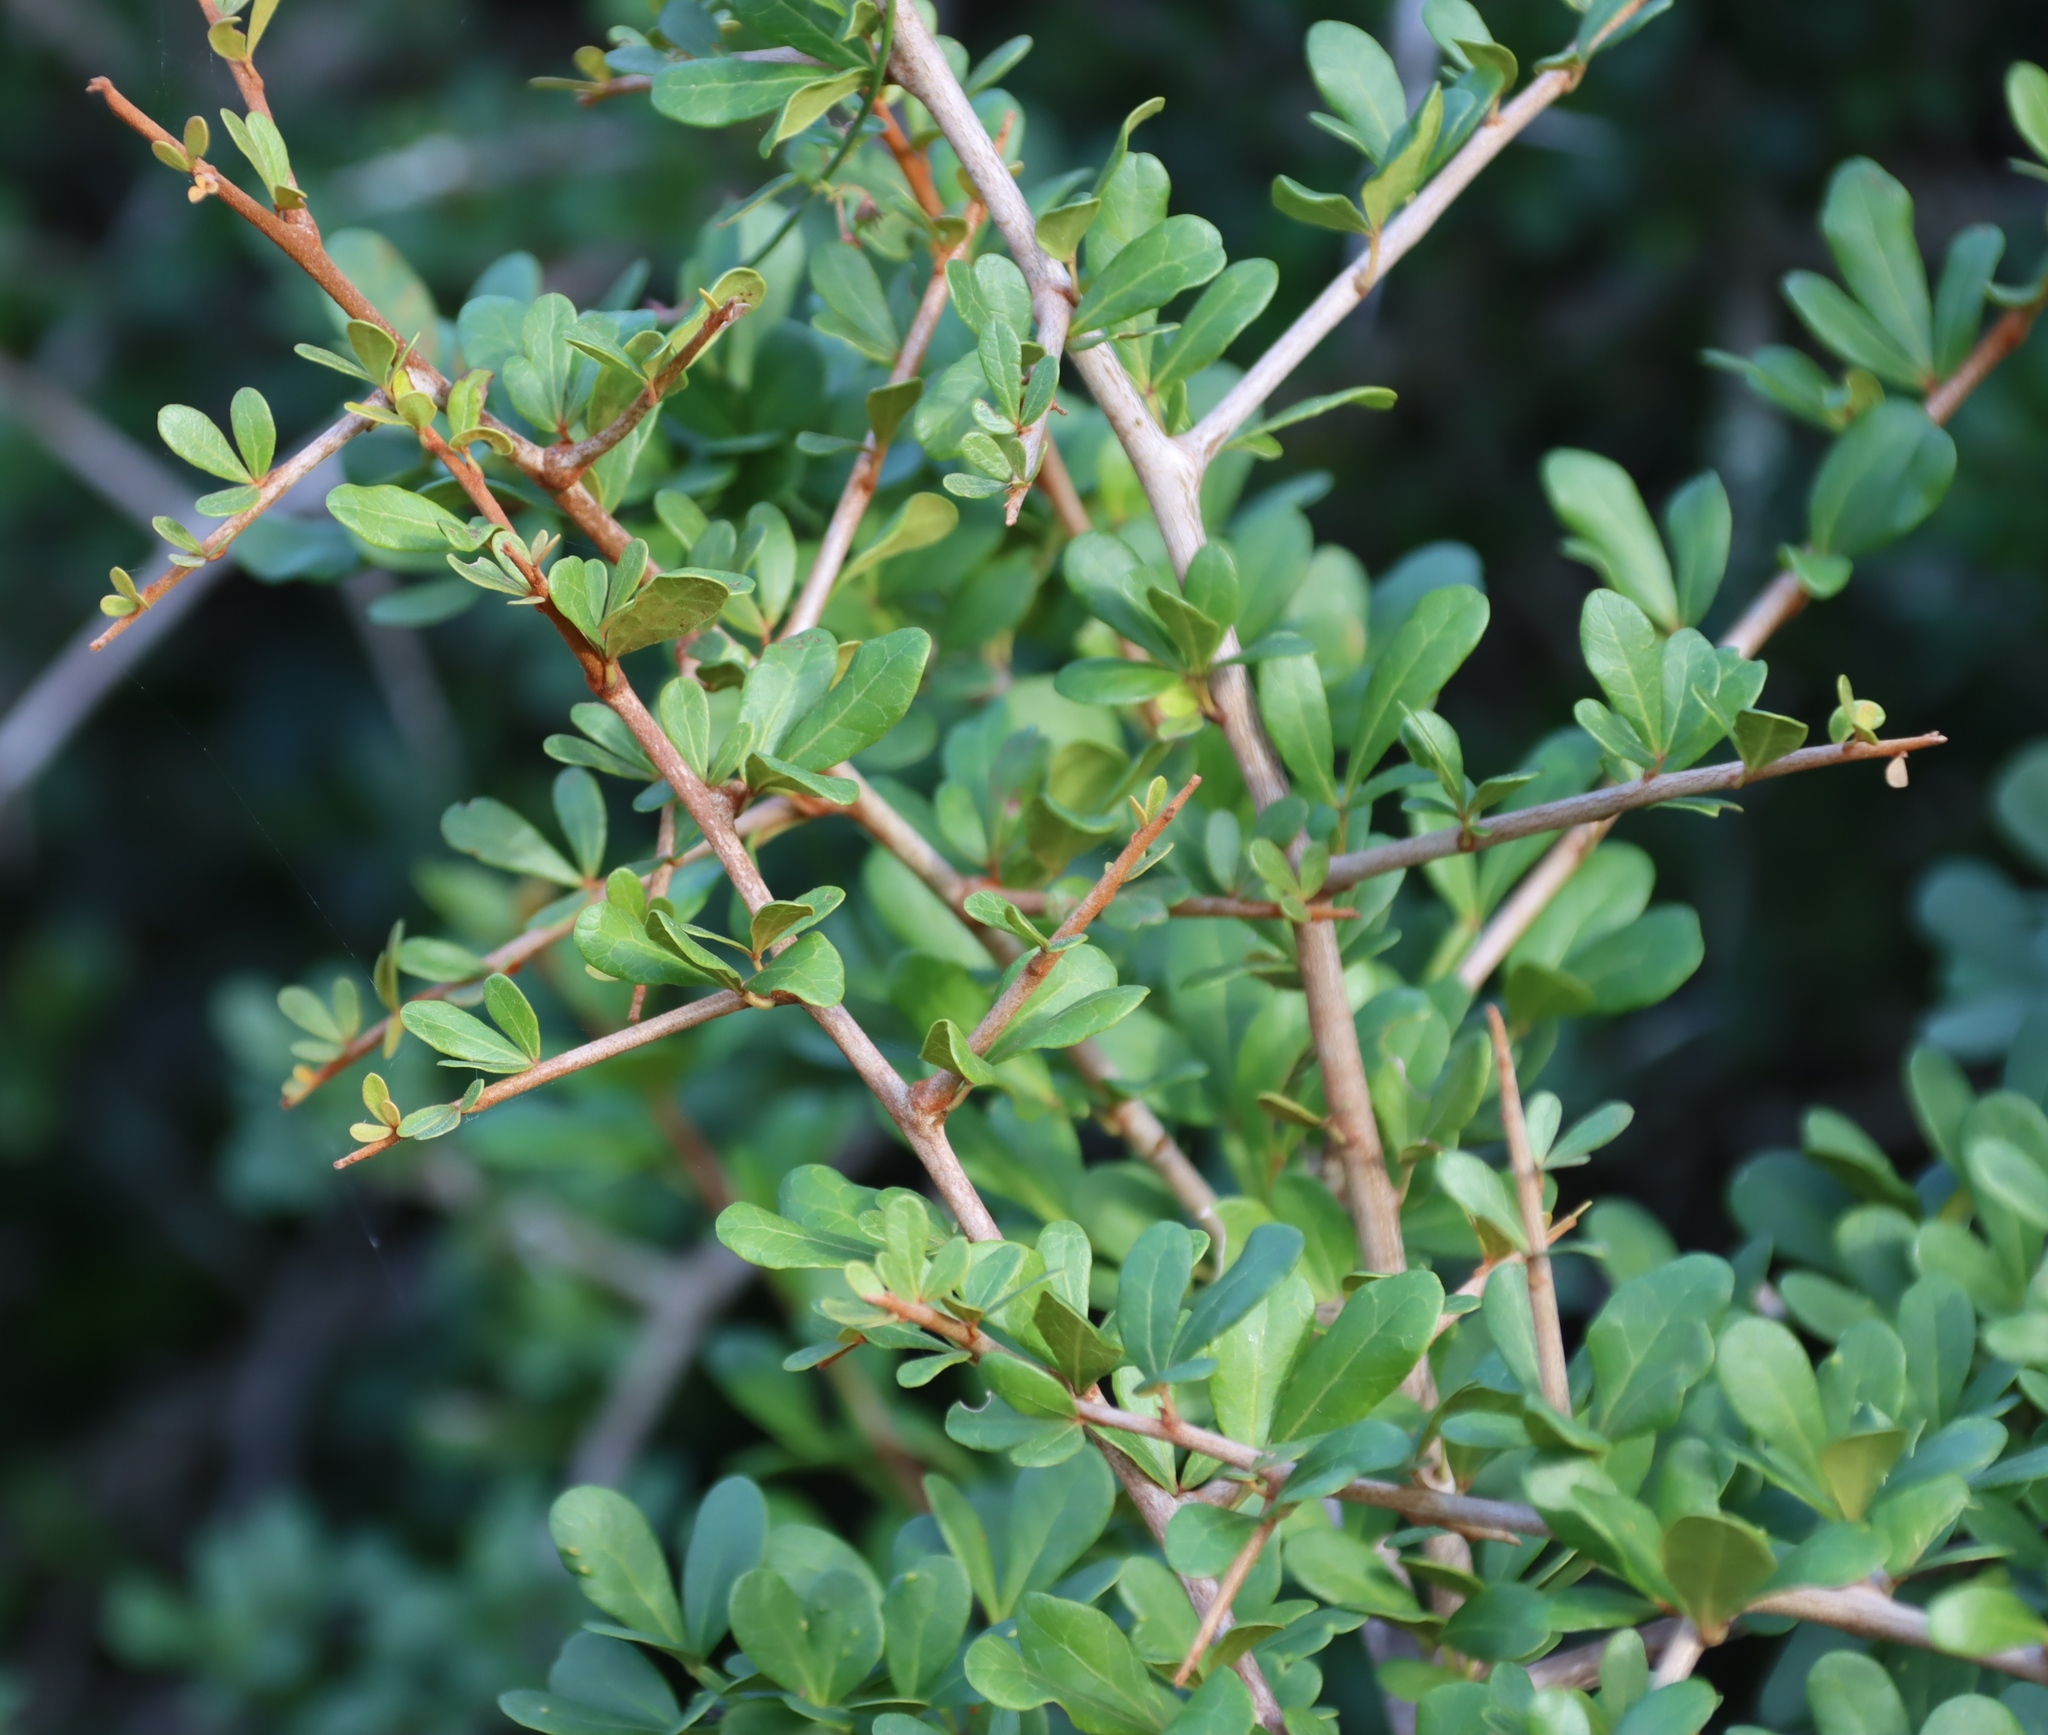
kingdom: Plantae
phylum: Tracheophyta
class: Magnoliopsida
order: Sapindales
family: Anacardiaceae
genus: Searsia
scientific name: Searsia pterota
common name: Winged currant
